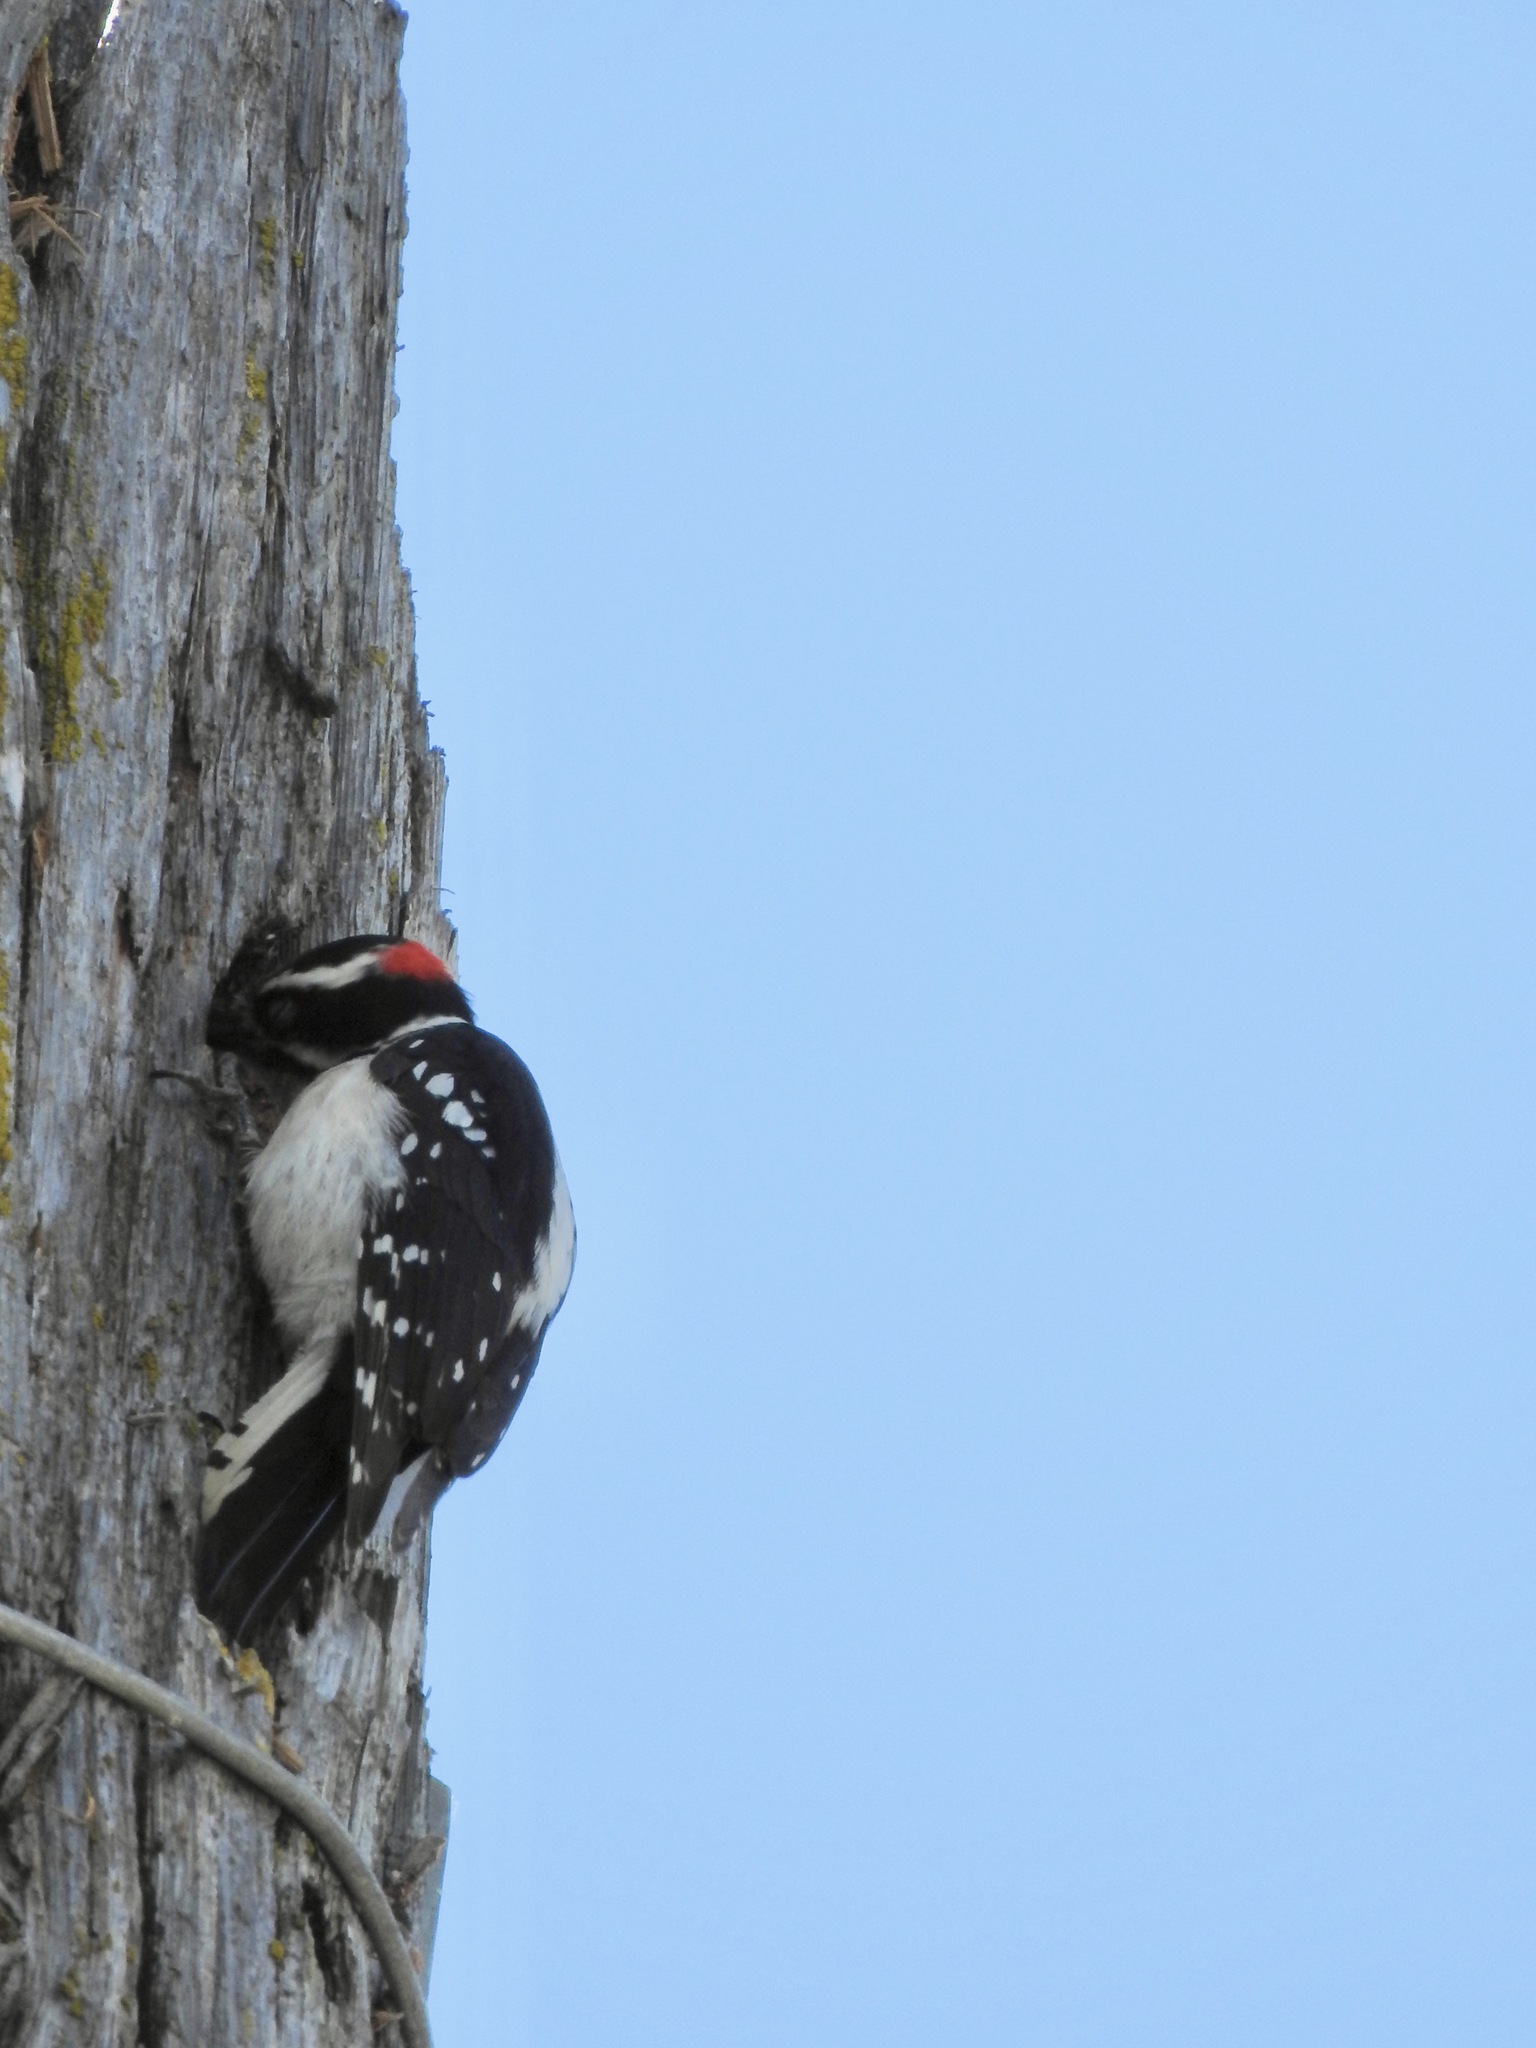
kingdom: Animalia
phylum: Chordata
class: Aves
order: Piciformes
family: Picidae
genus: Dryobates
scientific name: Dryobates pubescens
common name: Downy woodpecker
